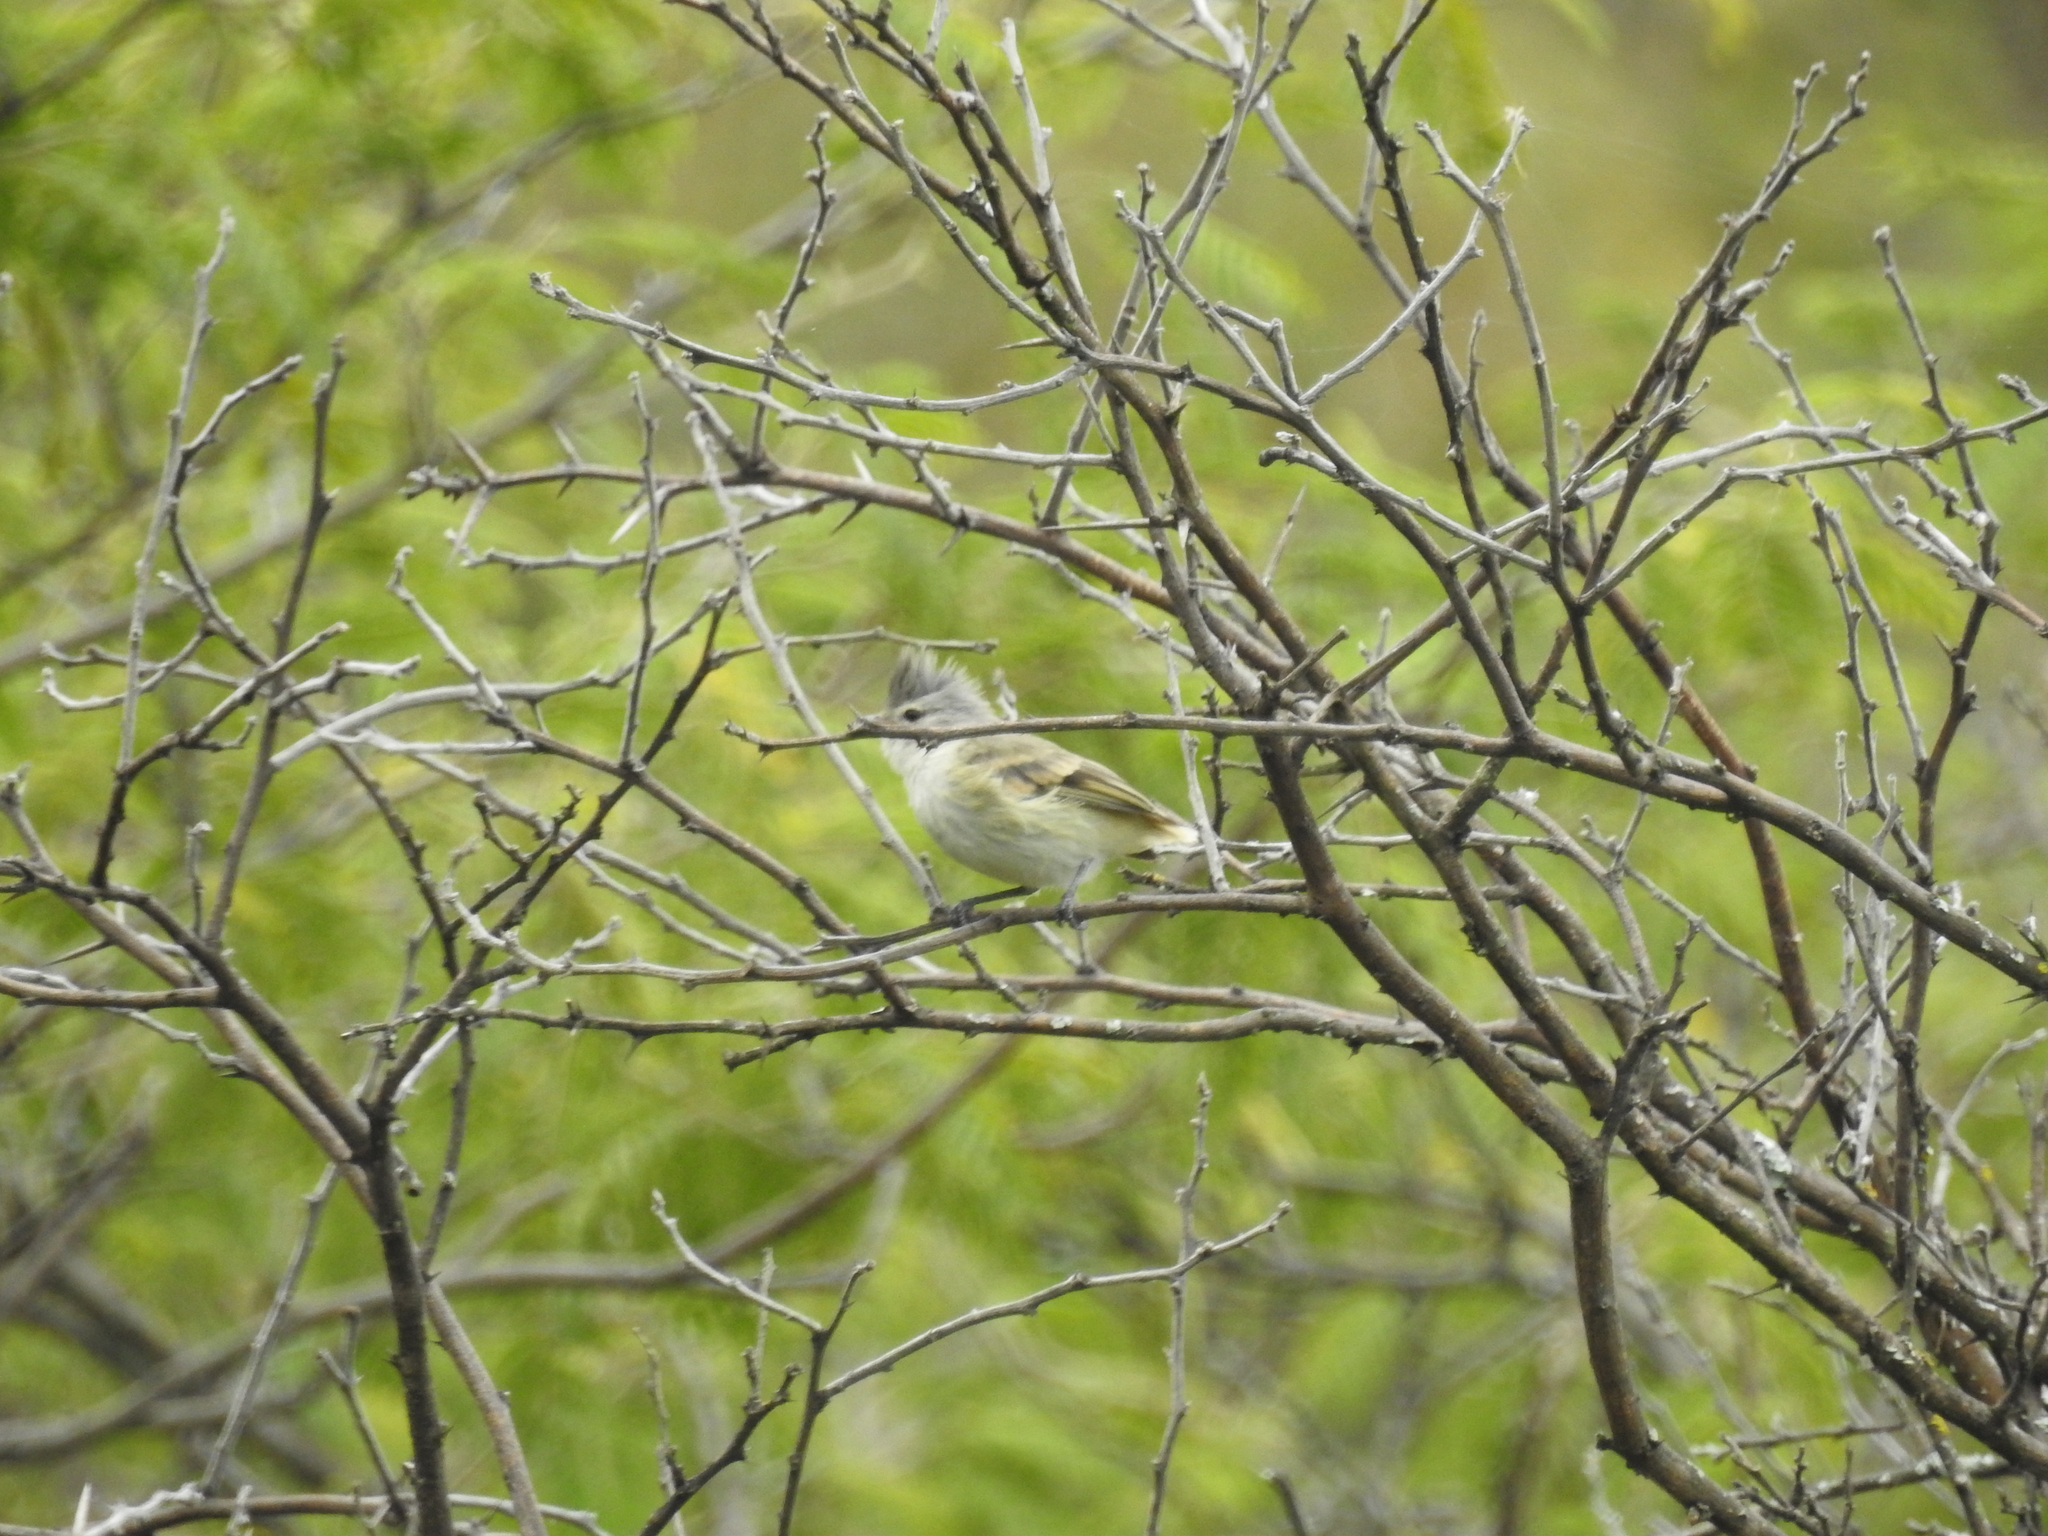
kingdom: Animalia
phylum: Chordata
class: Aves
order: Passeriformes
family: Tyrannidae
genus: Camptostoma
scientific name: Camptostoma obsoletum
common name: Southern beardless-tyrannulet
